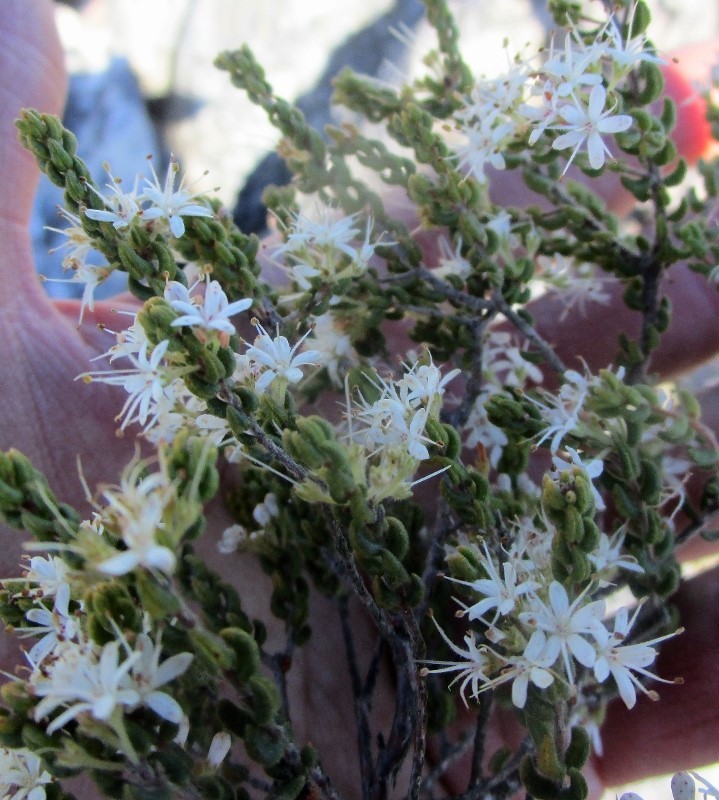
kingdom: Plantae
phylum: Tracheophyta
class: Magnoliopsida
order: Sapindales
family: Rutaceae
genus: Agathosma
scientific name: Agathosma blaerioides
